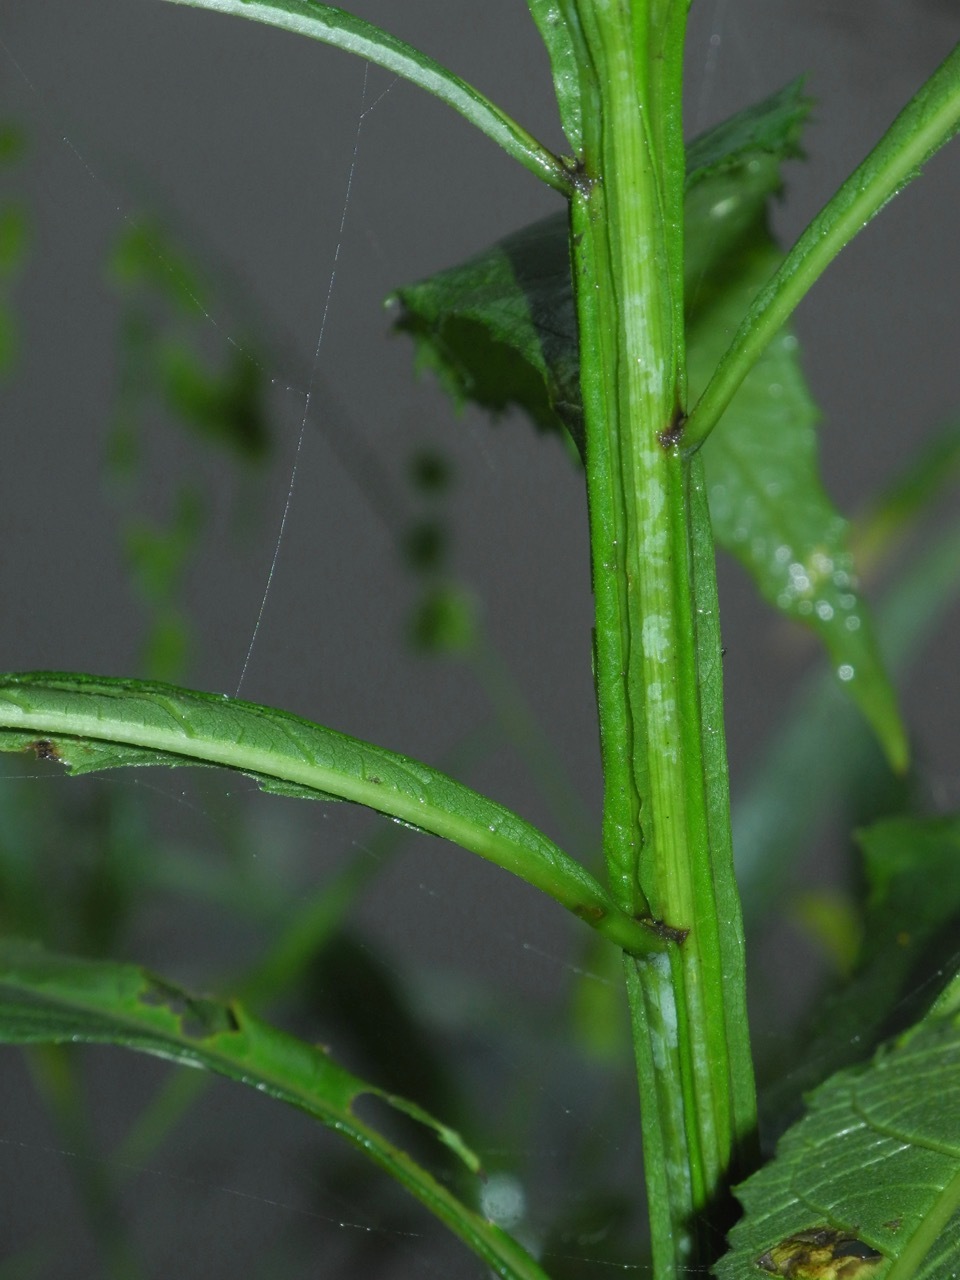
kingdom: Plantae
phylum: Tracheophyta
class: Magnoliopsida
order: Asterales
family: Asteraceae
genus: Verbesina
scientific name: Verbesina alternifolia
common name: Wingstem
